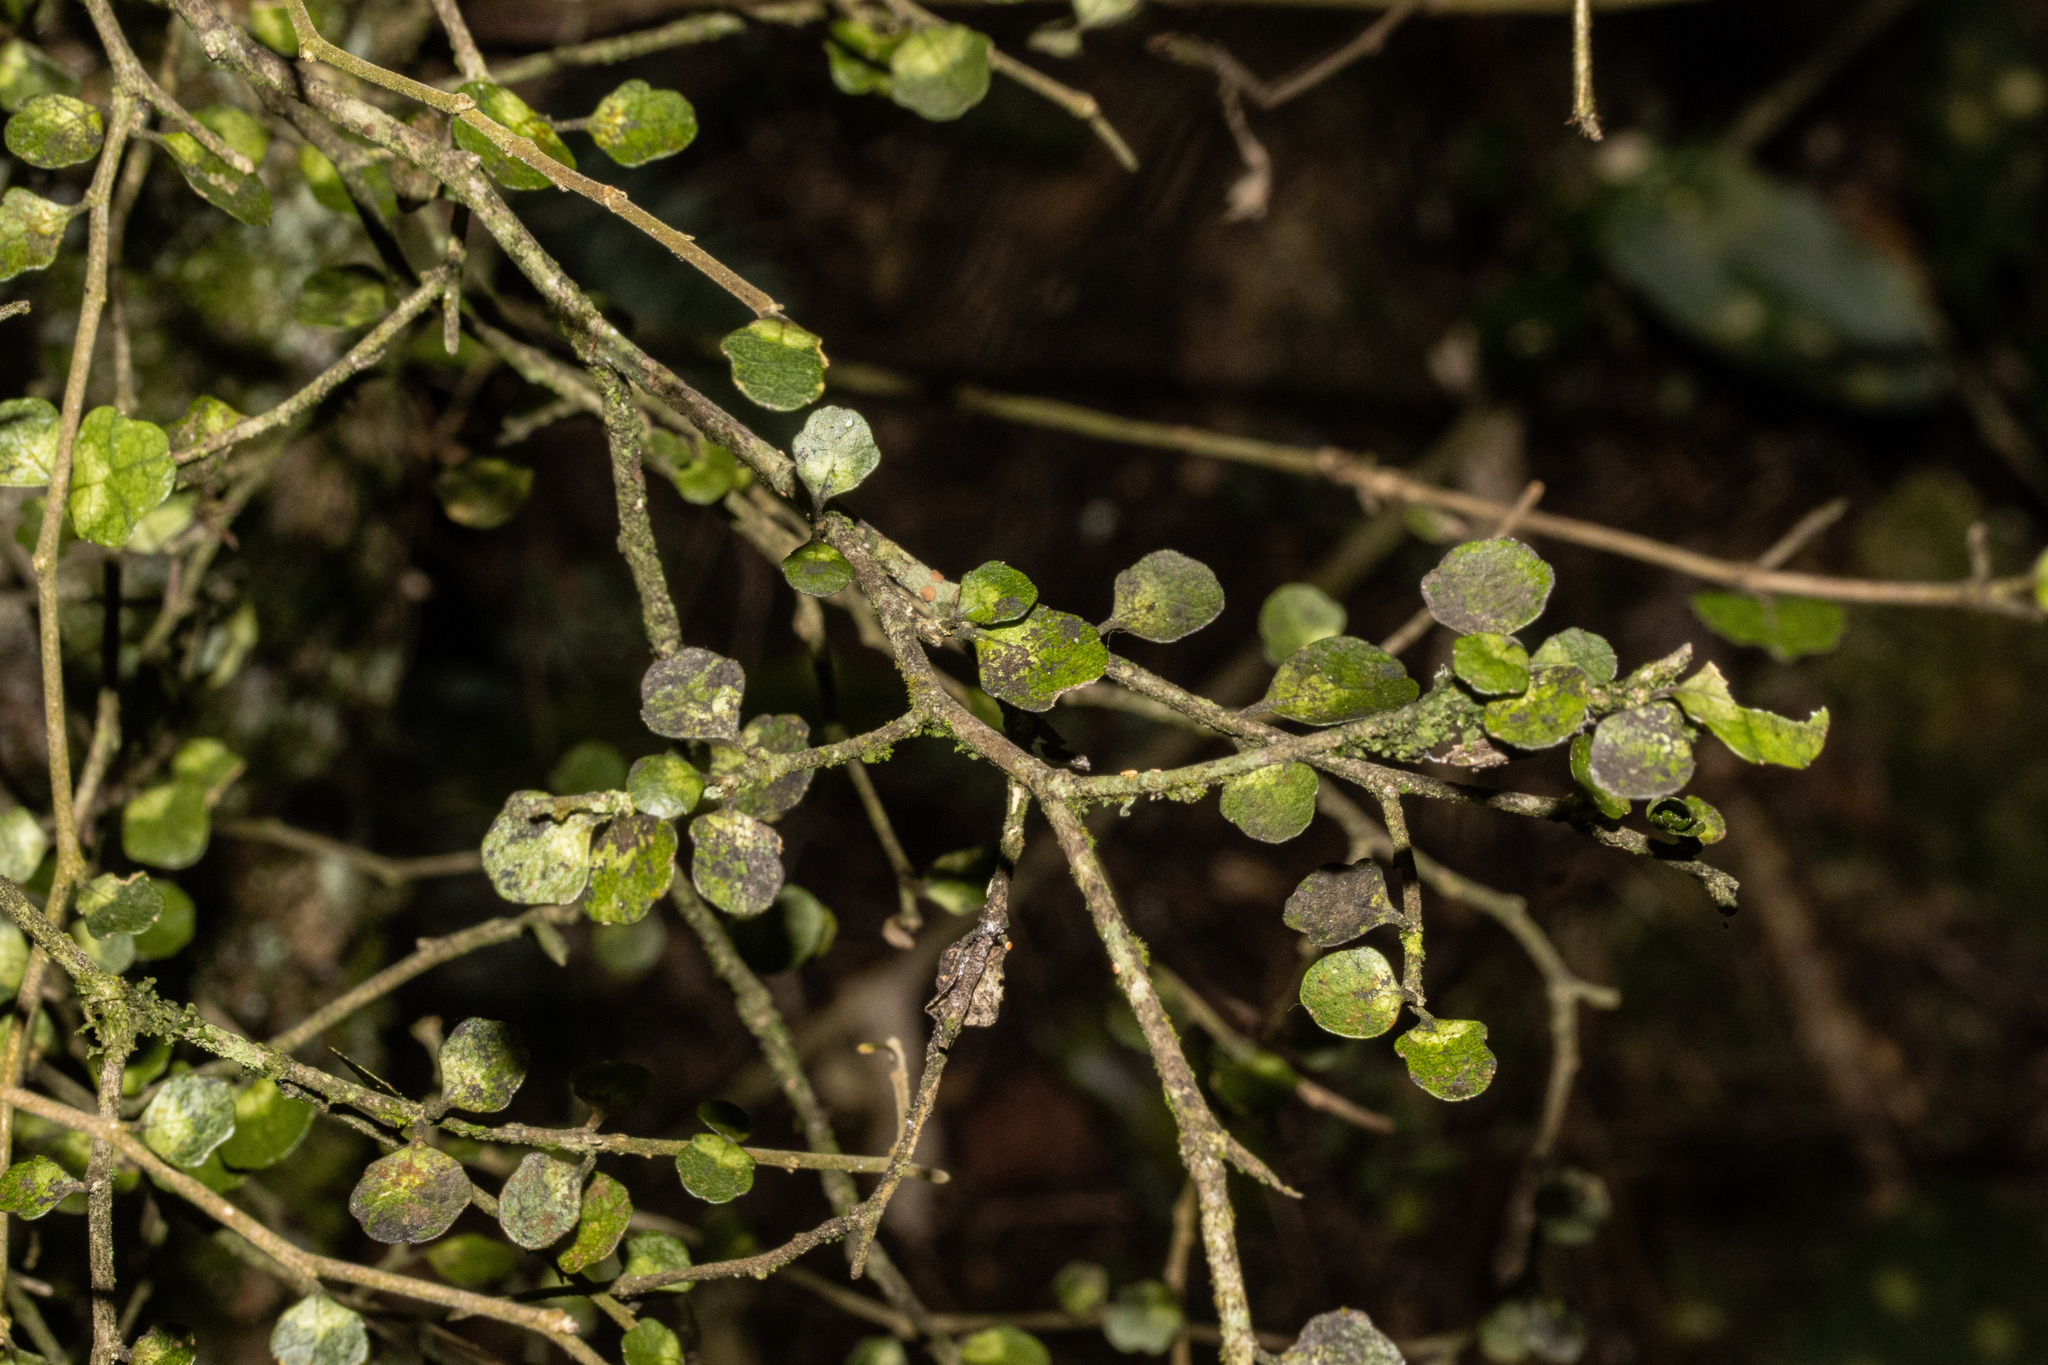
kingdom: Plantae
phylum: Tracheophyta
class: Magnoliopsida
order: Malpighiales
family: Violaceae
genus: Melicytus
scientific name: Melicytus micranthus
